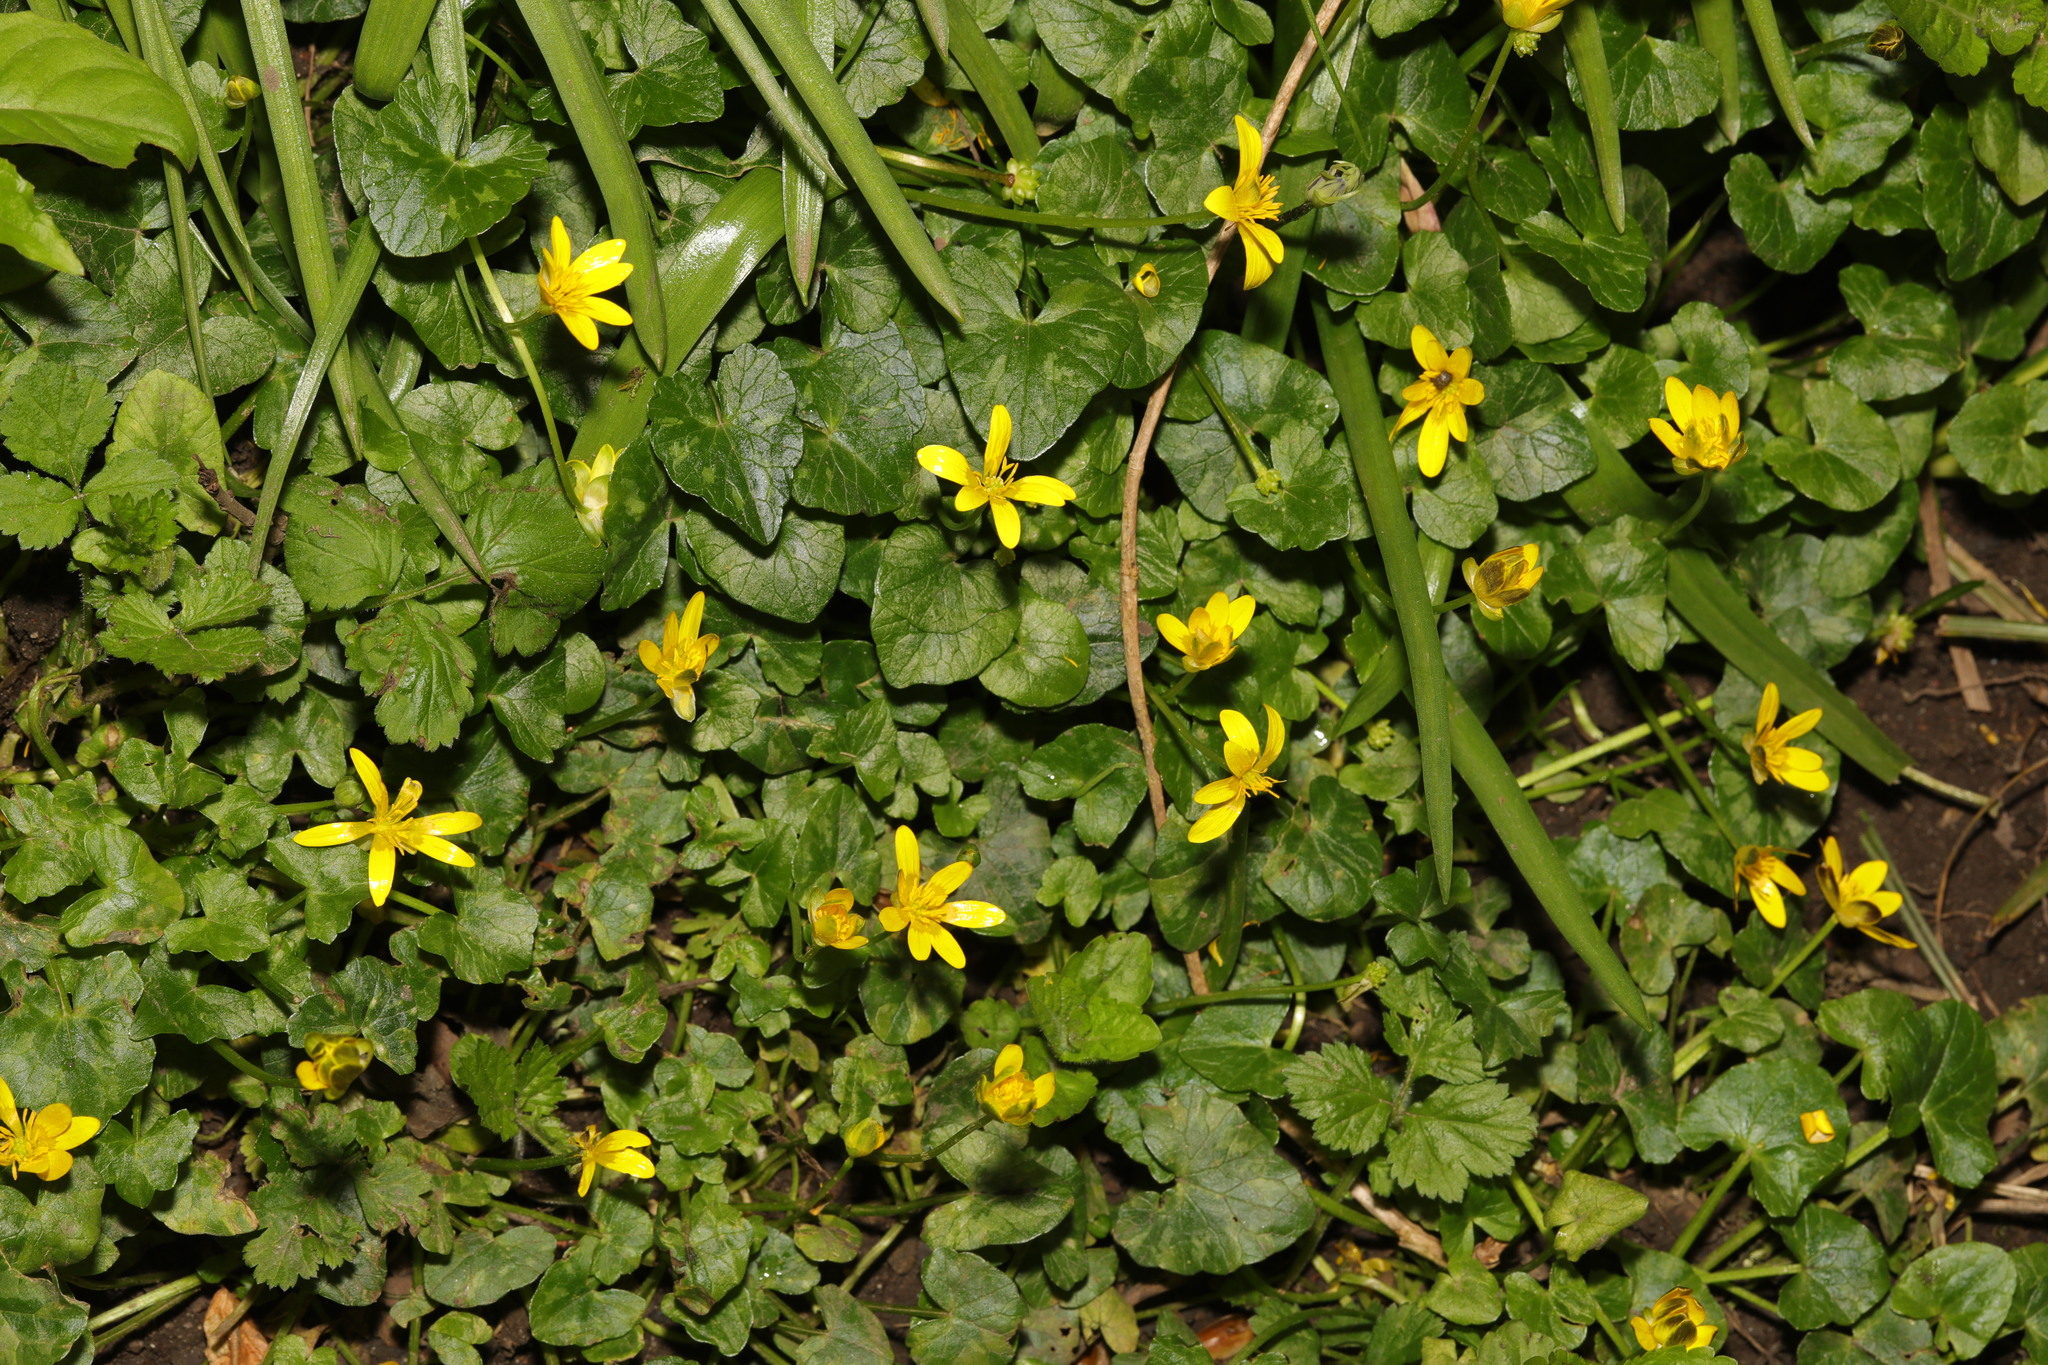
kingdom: Plantae
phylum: Tracheophyta
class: Magnoliopsida
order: Ranunculales
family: Ranunculaceae
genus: Ficaria
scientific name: Ficaria verna
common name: Lesser celandine
